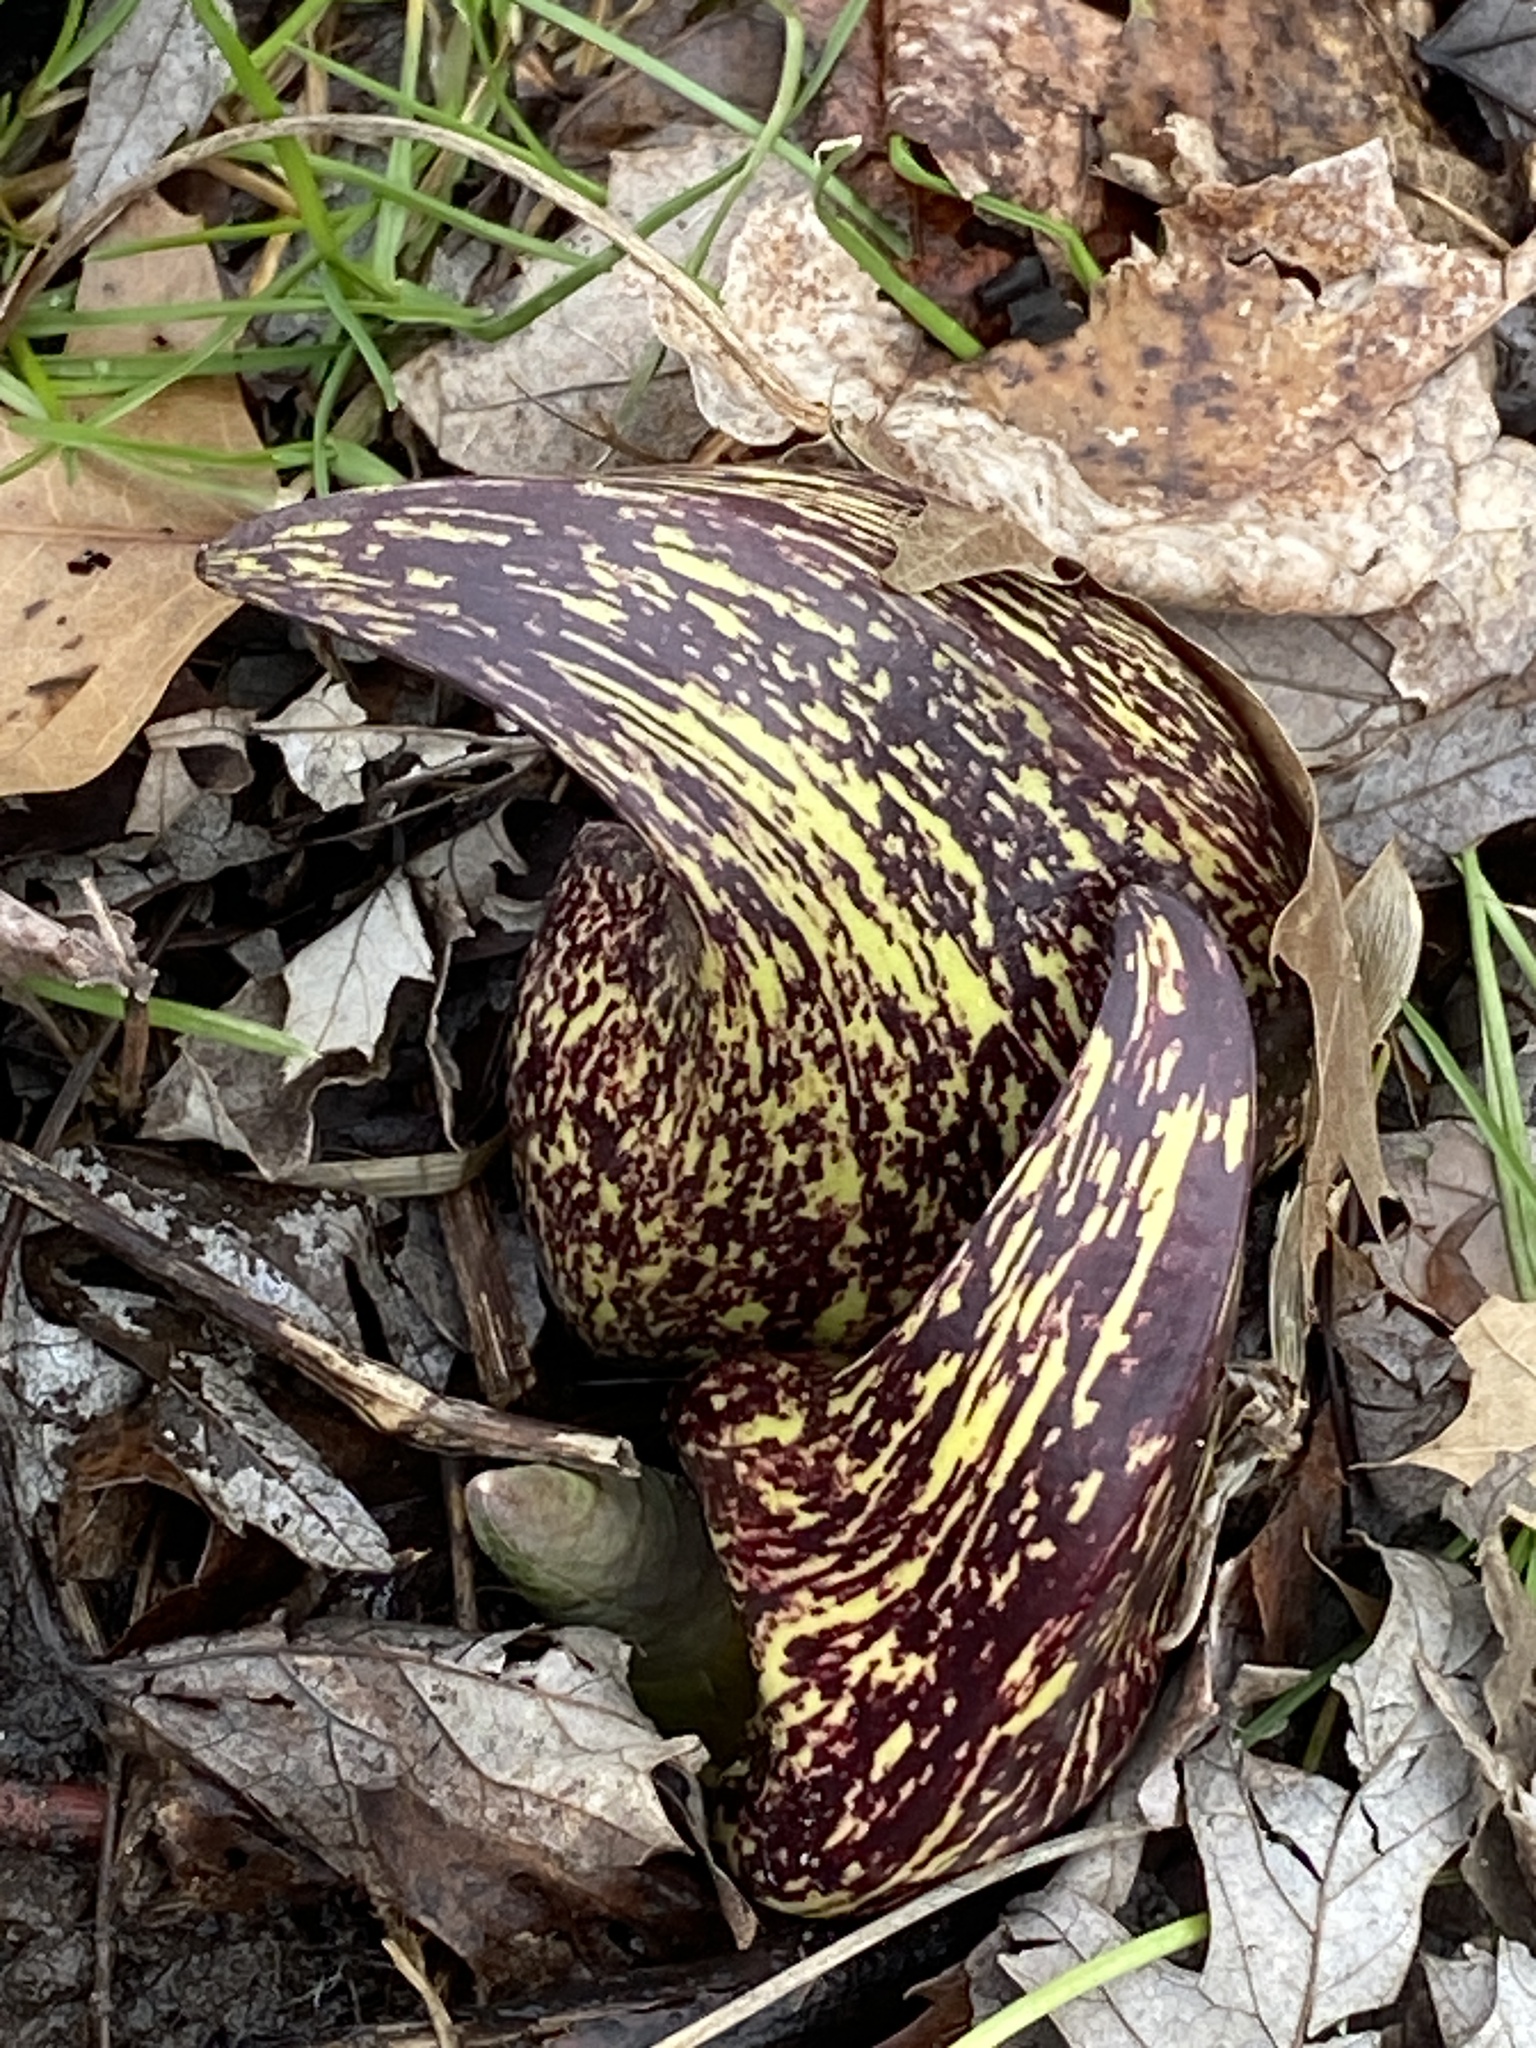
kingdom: Plantae
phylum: Tracheophyta
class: Liliopsida
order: Alismatales
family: Araceae
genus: Symplocarpus
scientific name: Symplocarpus foetidus
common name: Eastern skunk cabbage
